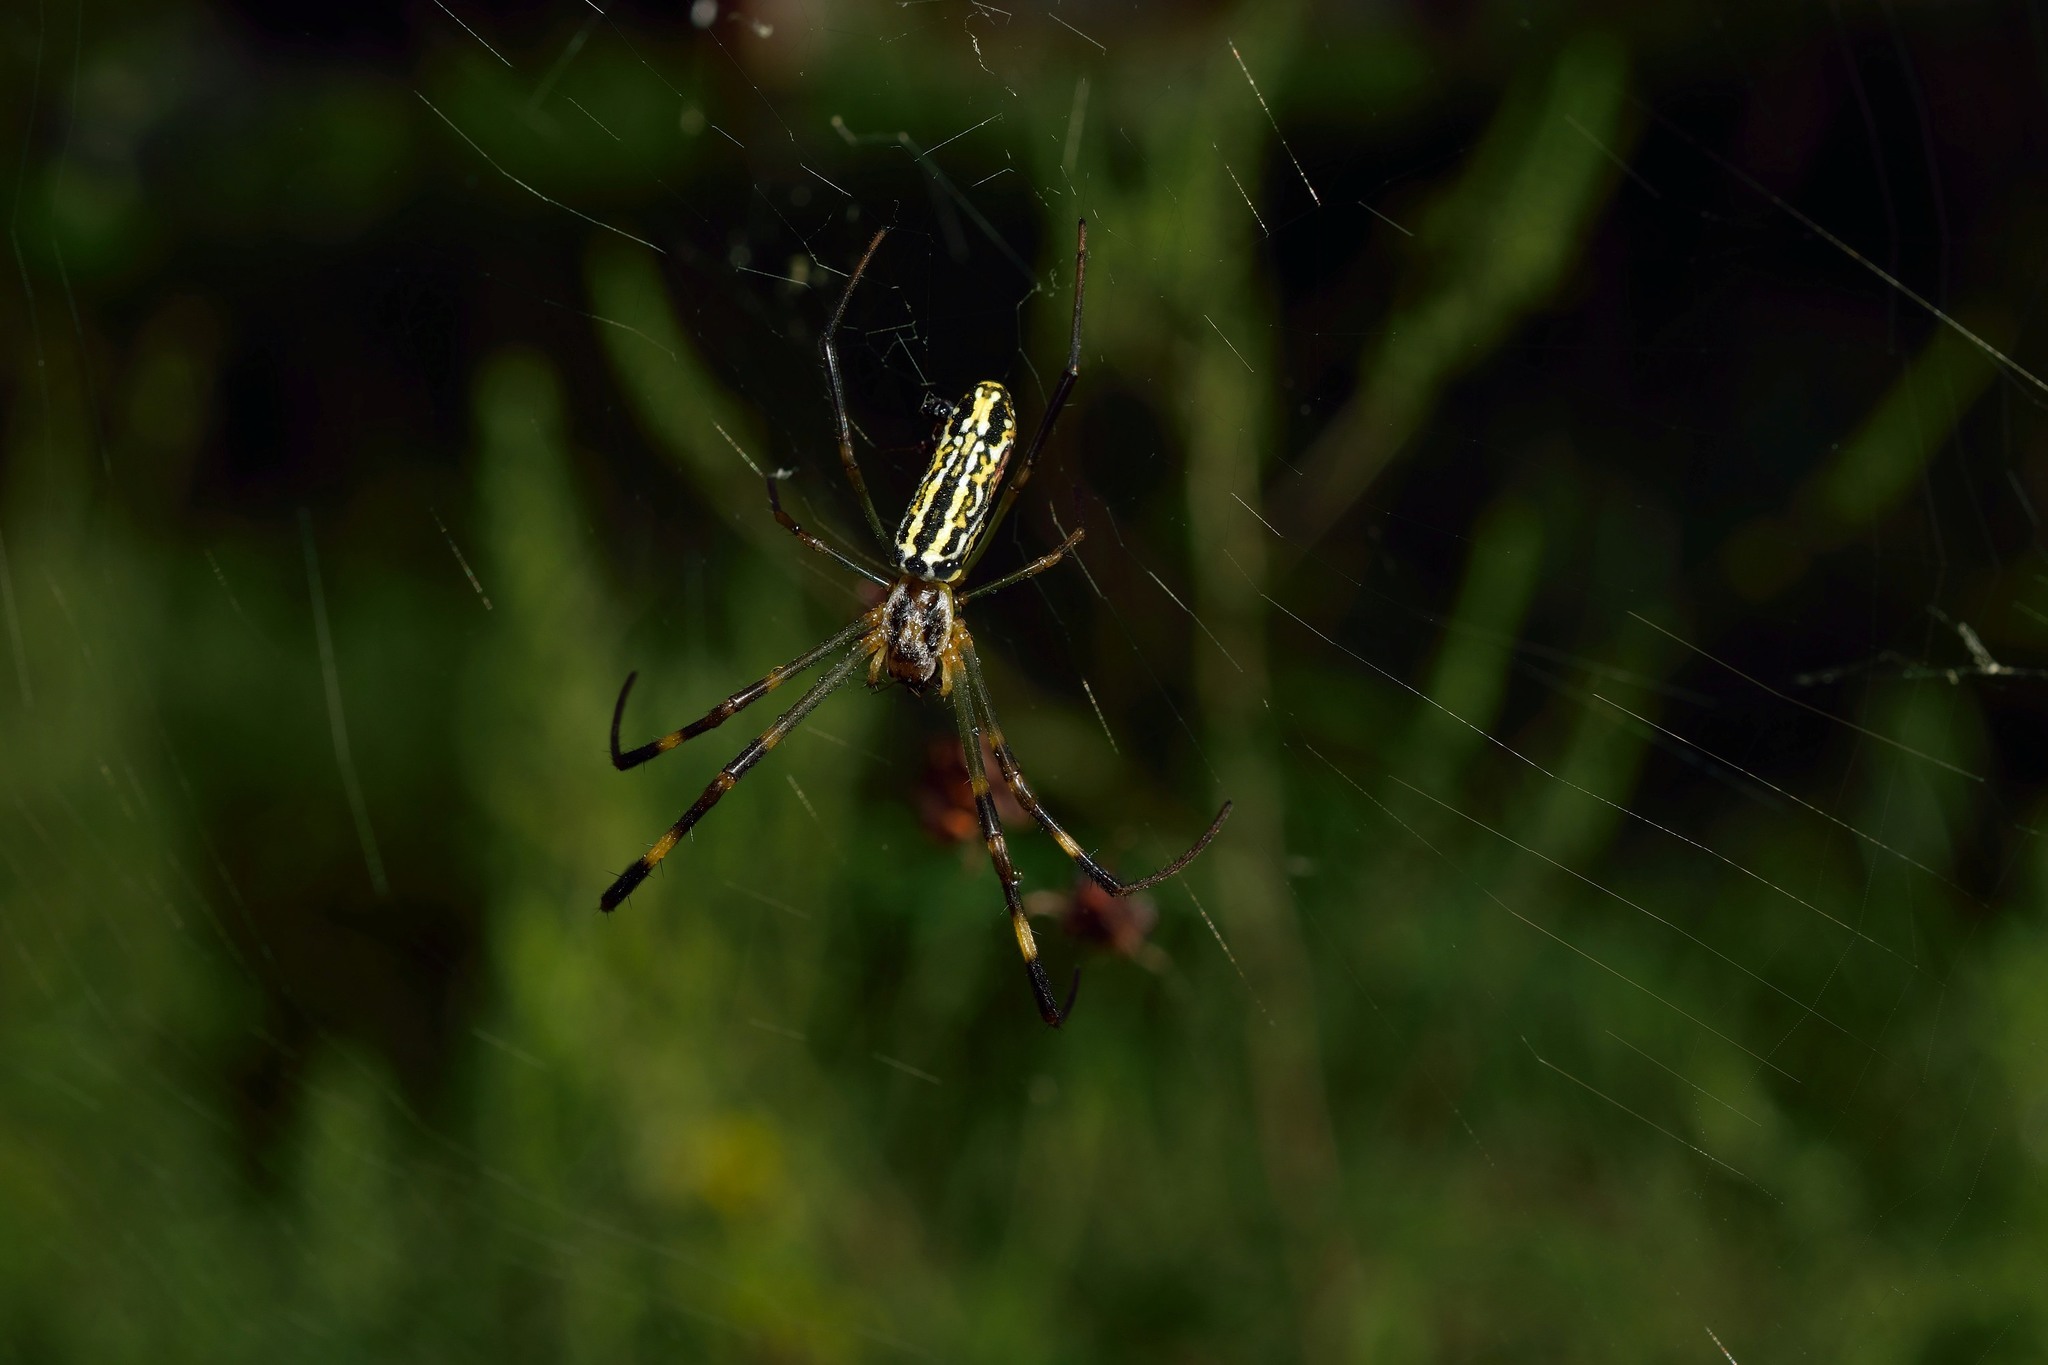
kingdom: Animalia
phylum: Arthropoda
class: Arachnida
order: Araneae
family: Araneidae
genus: Nephila
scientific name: Nephila pilipes
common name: Giant golden orb weaver
